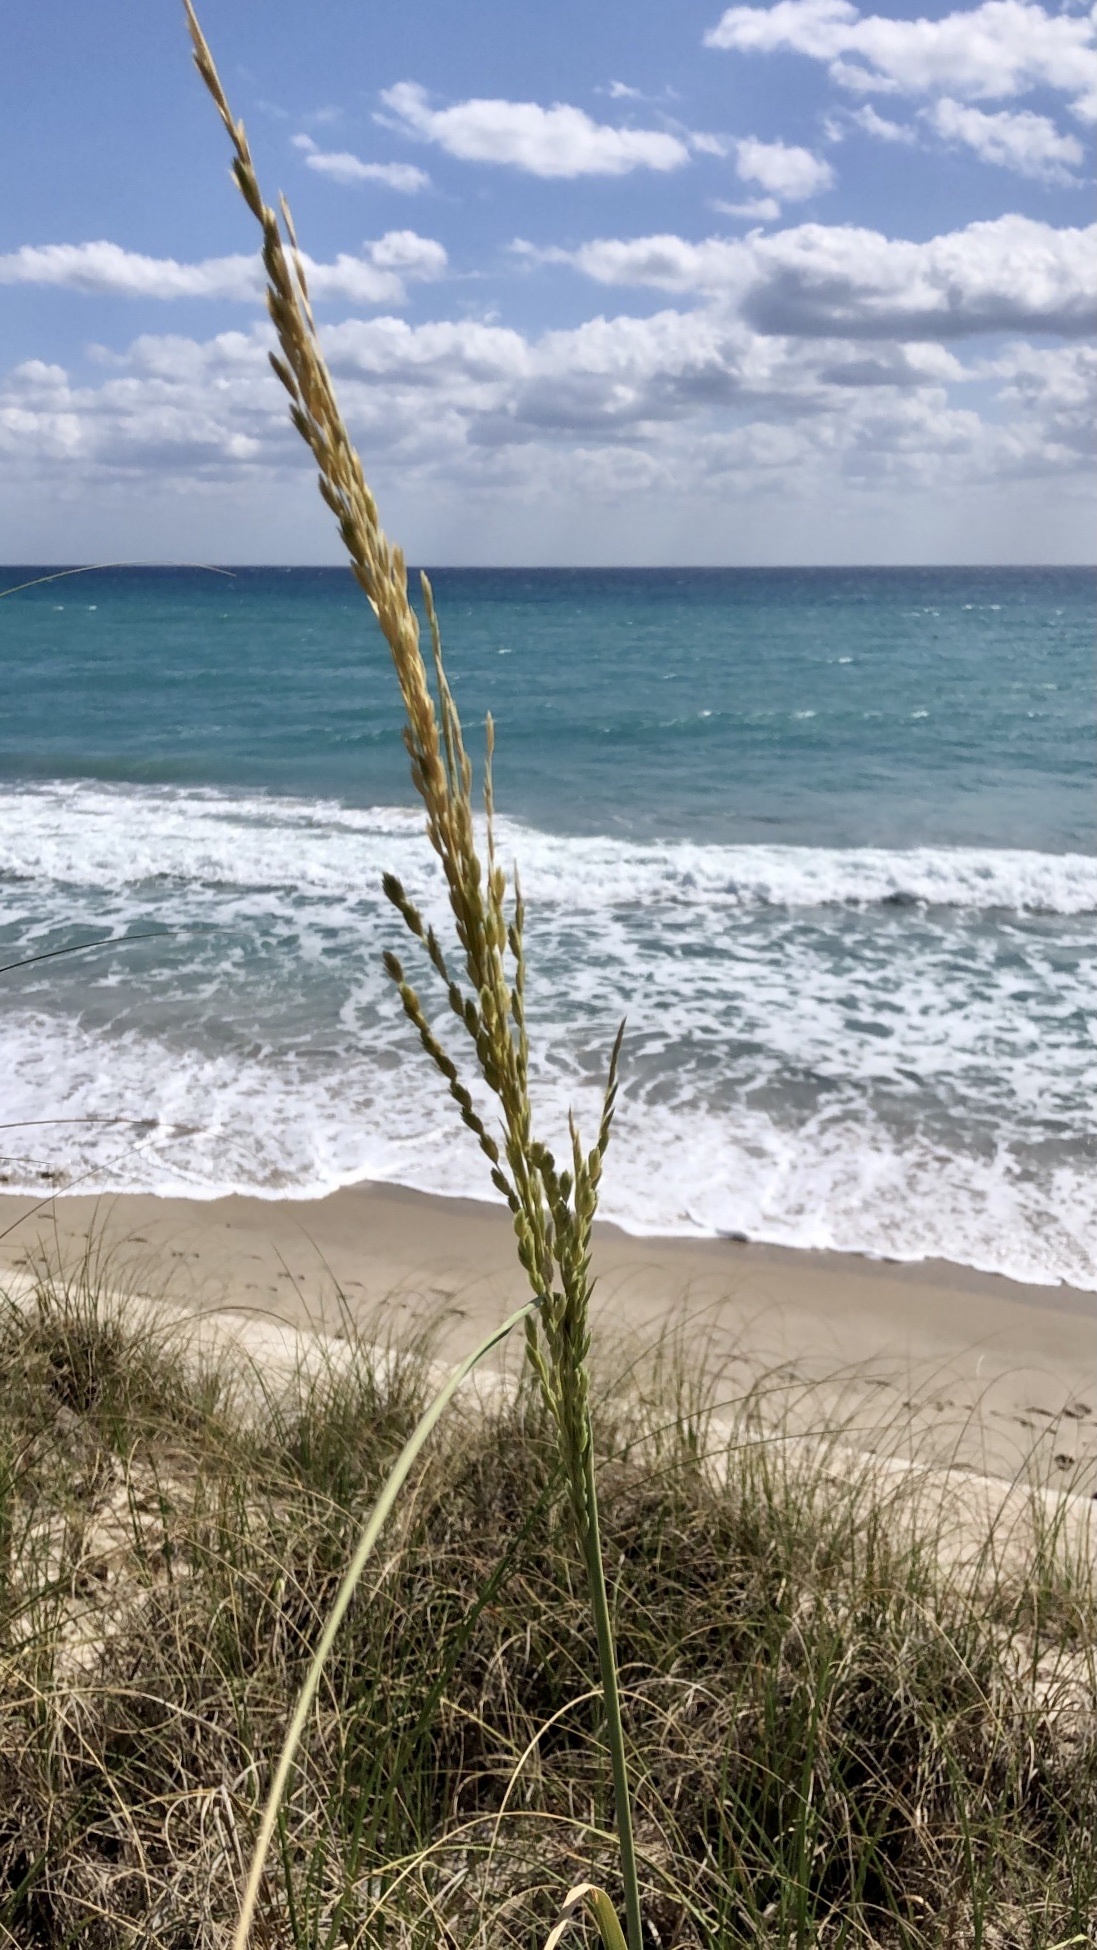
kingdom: Plantae
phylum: Tracheophyta
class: Liliopsida
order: Poales
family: Poaceae
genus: Uniola
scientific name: Uniola paniculata
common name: Seaside-oats
